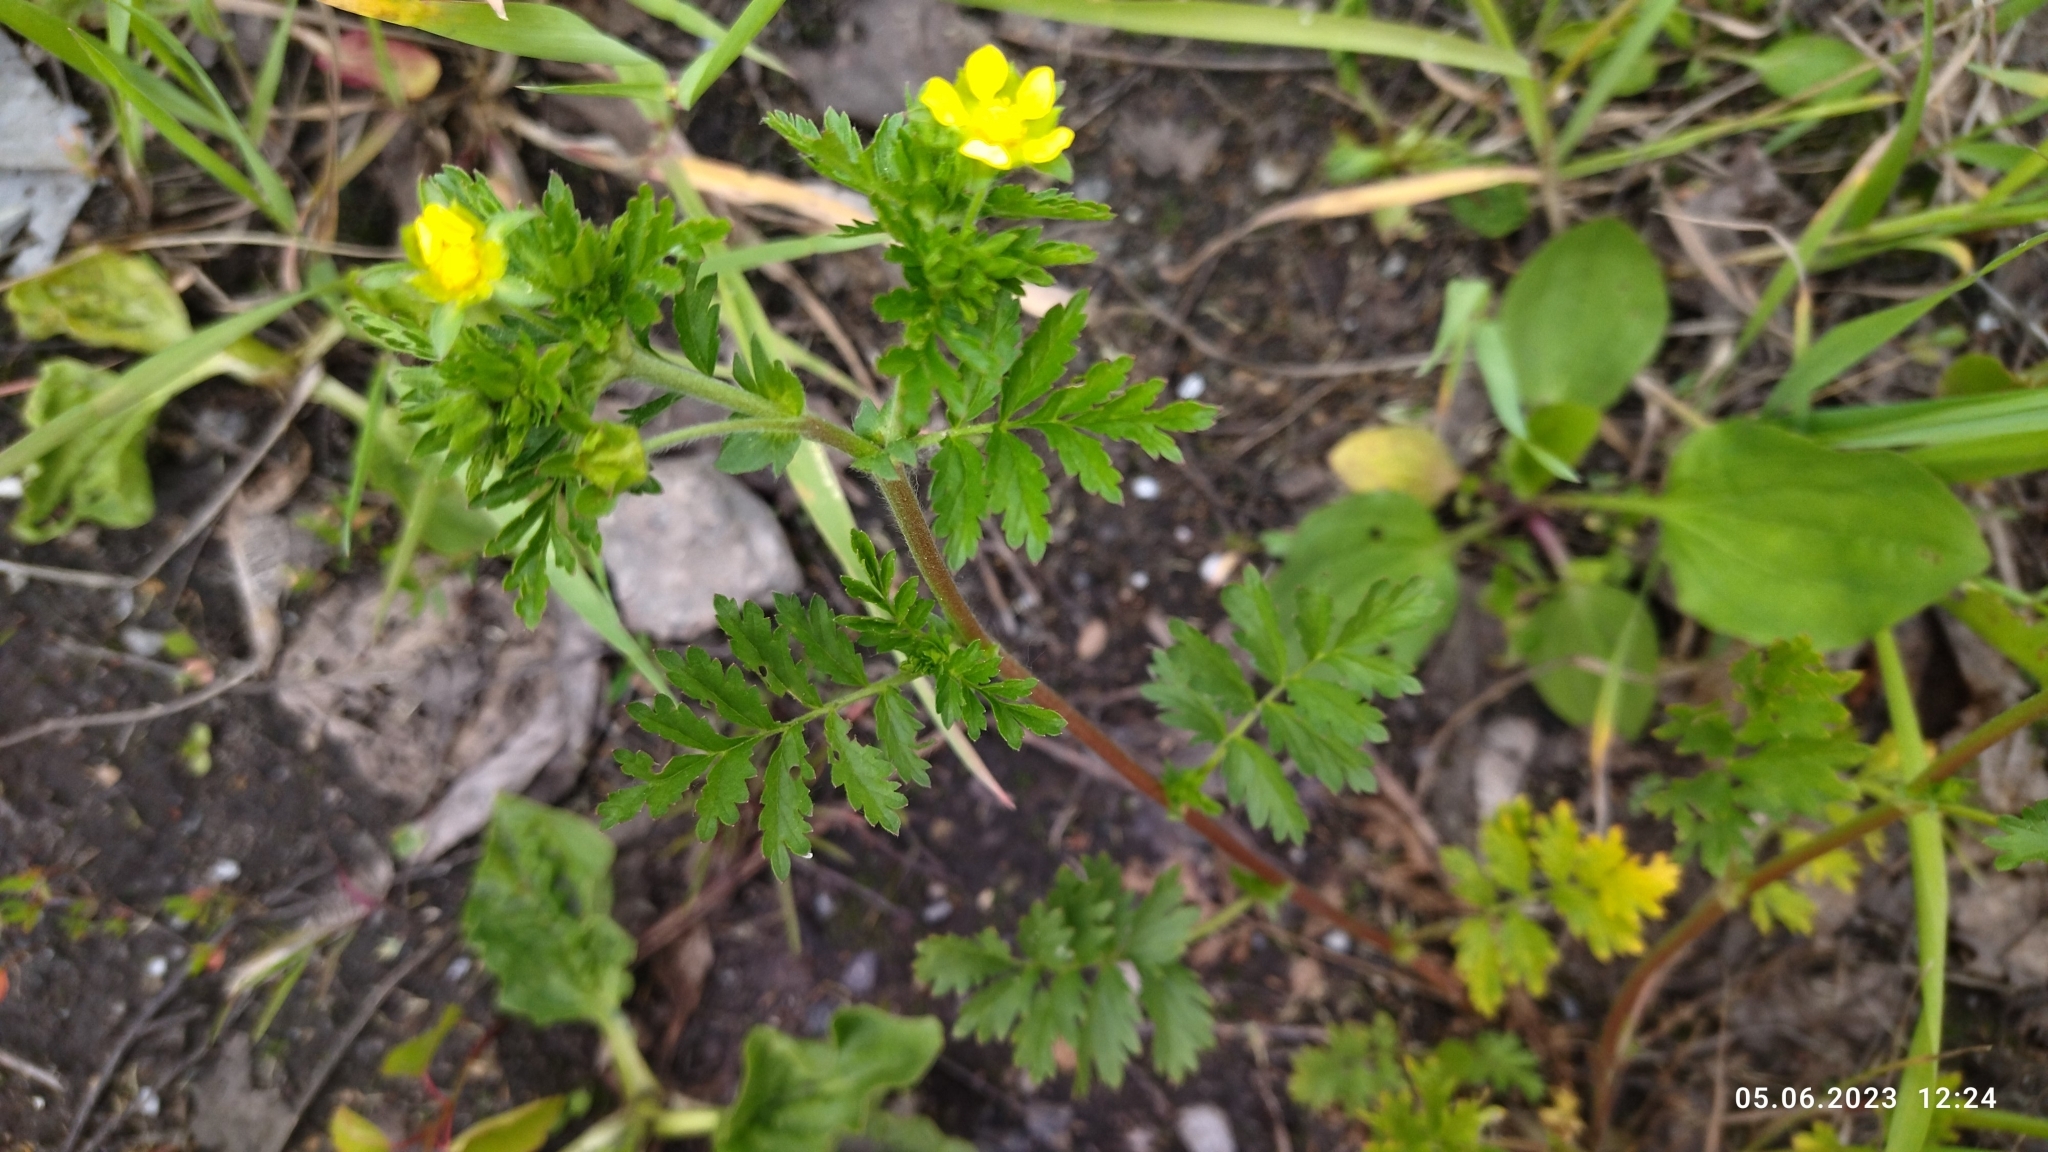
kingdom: Plantae
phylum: Tracheophyta
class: Magnoliopsida
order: Rosales
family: Rosaceae
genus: Potentilla
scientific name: Potentilla supina
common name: Prostrate cinquefoil
